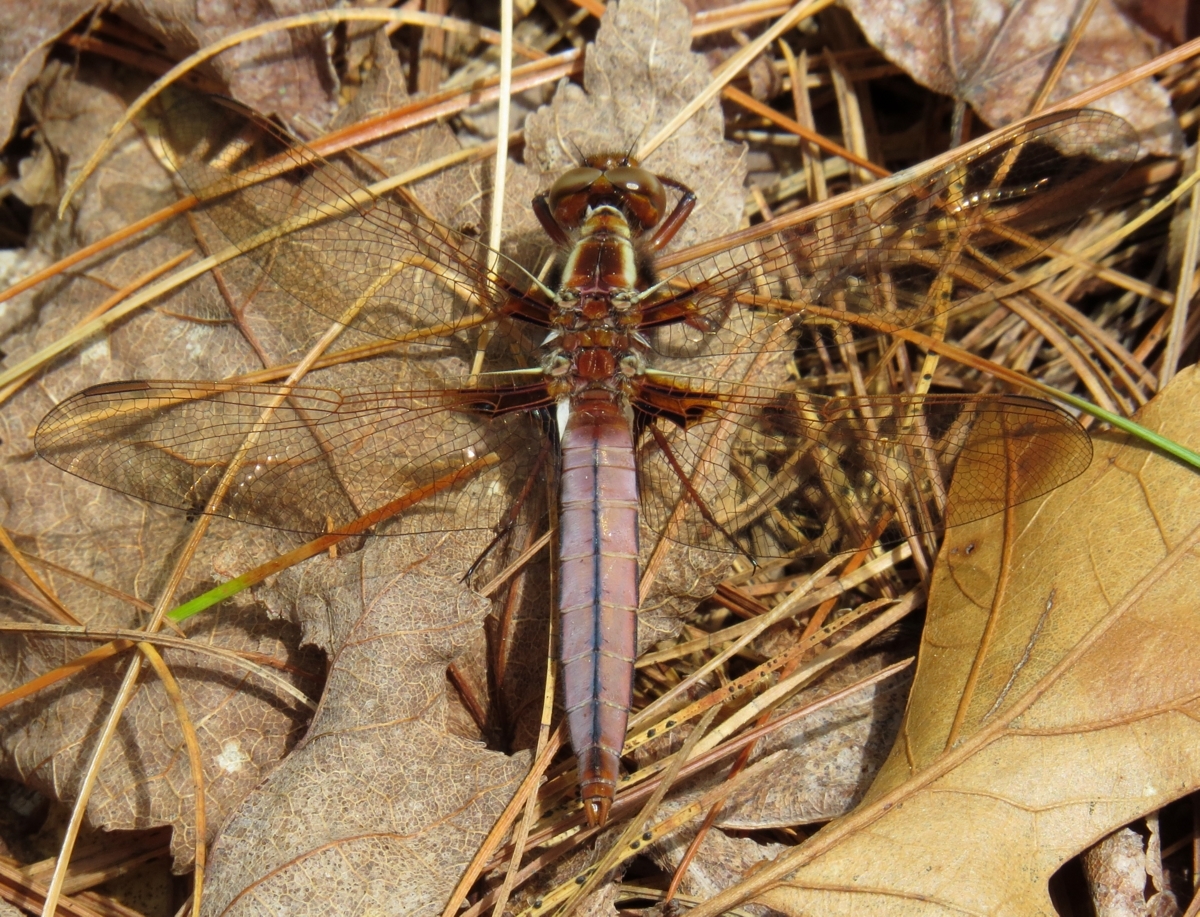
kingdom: Animalia
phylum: Arthropoda
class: Insecta
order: Odonata
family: Libellulidae
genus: Ladona
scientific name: Ladona exusta
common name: Libellule embrasée
